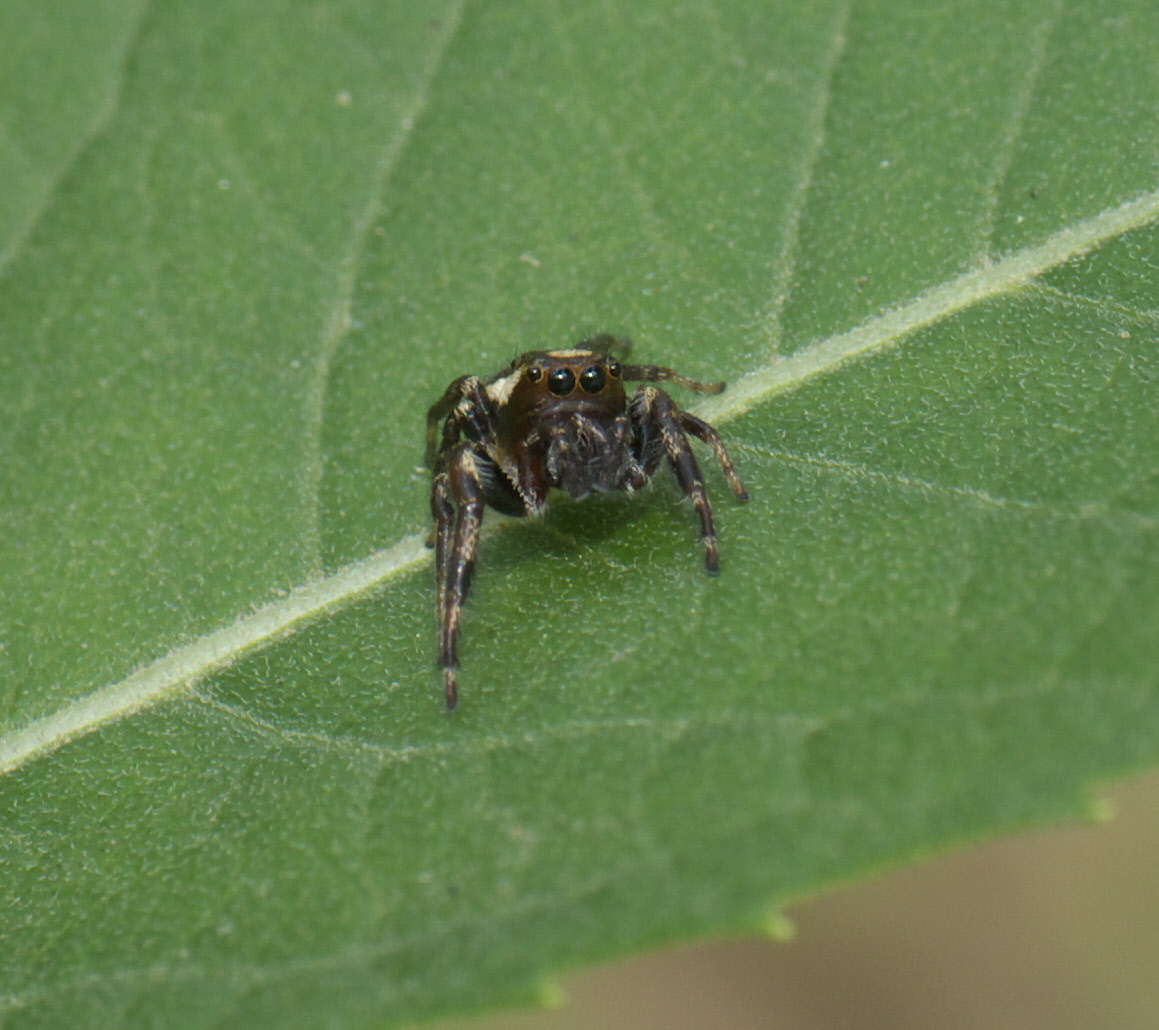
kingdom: Animalia
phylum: Arthropoda
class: Arachnida
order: Araneae
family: Salticidae
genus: Eris
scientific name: Eris militaris
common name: Bronze jumper
